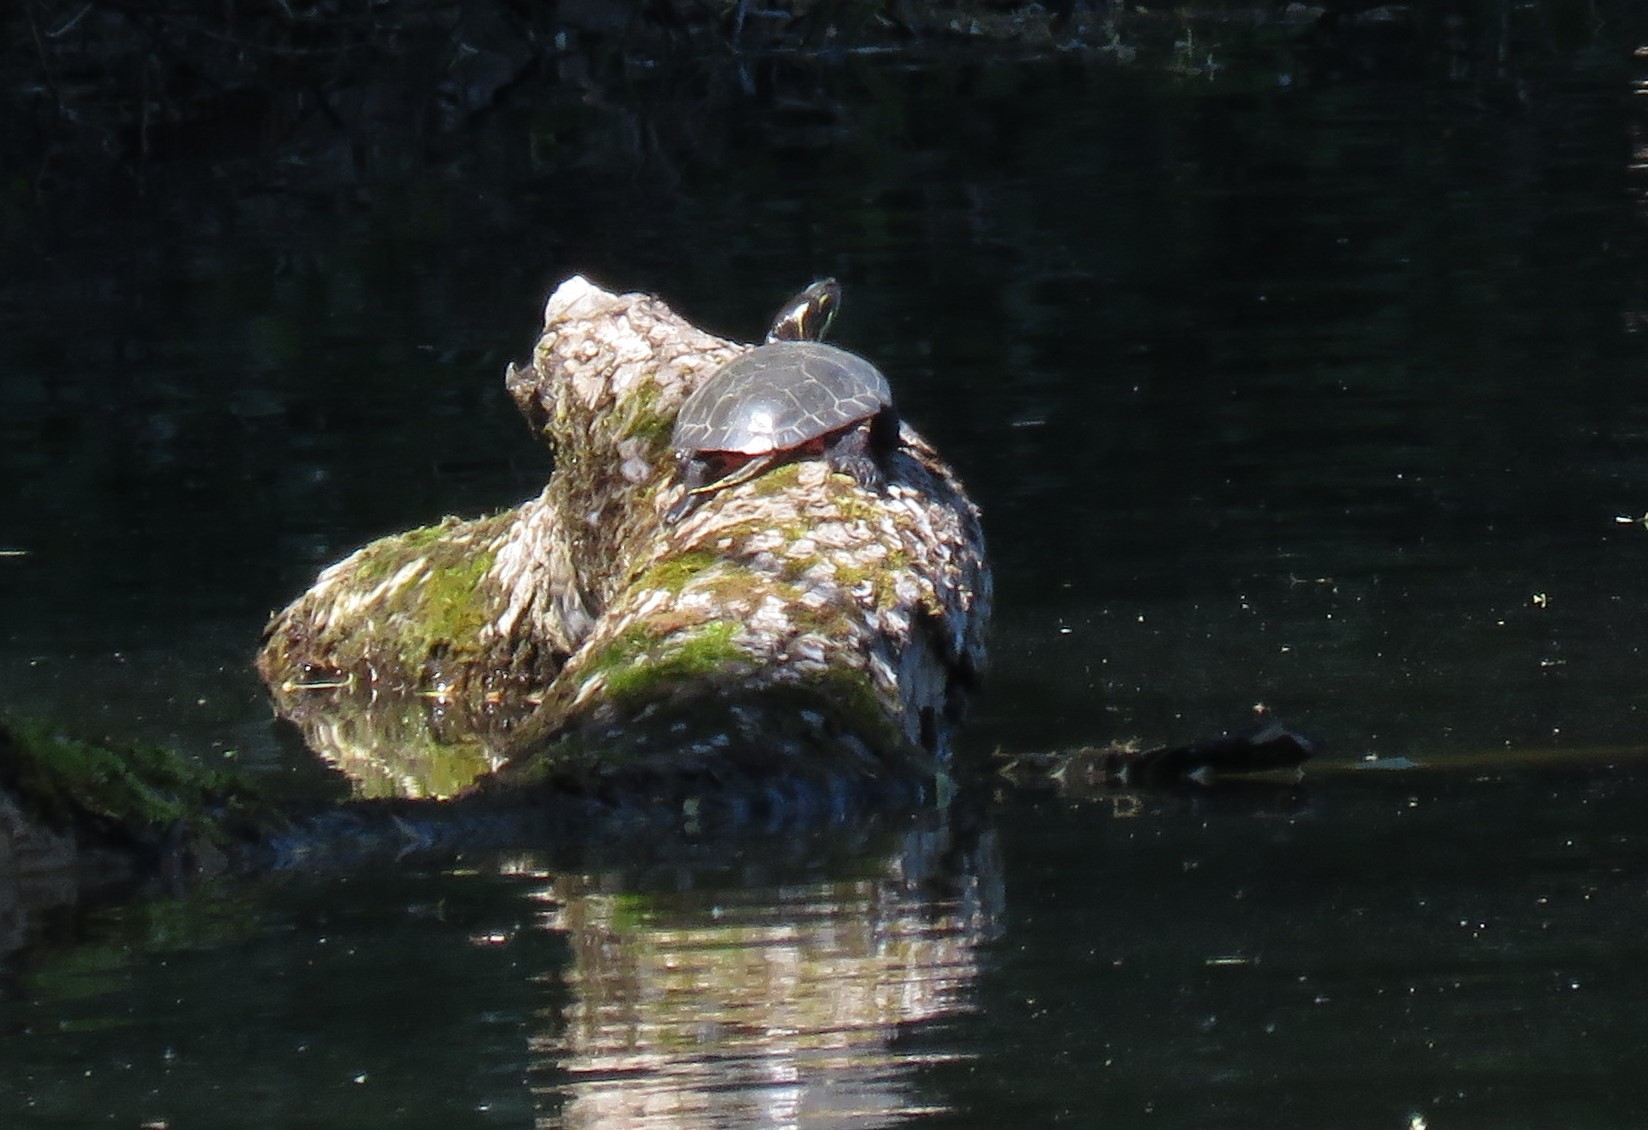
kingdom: Animalia
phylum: Chordata
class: Testudines
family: Emydidae
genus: Chrysemys
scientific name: Chrysemys picta
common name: Painted turtle
